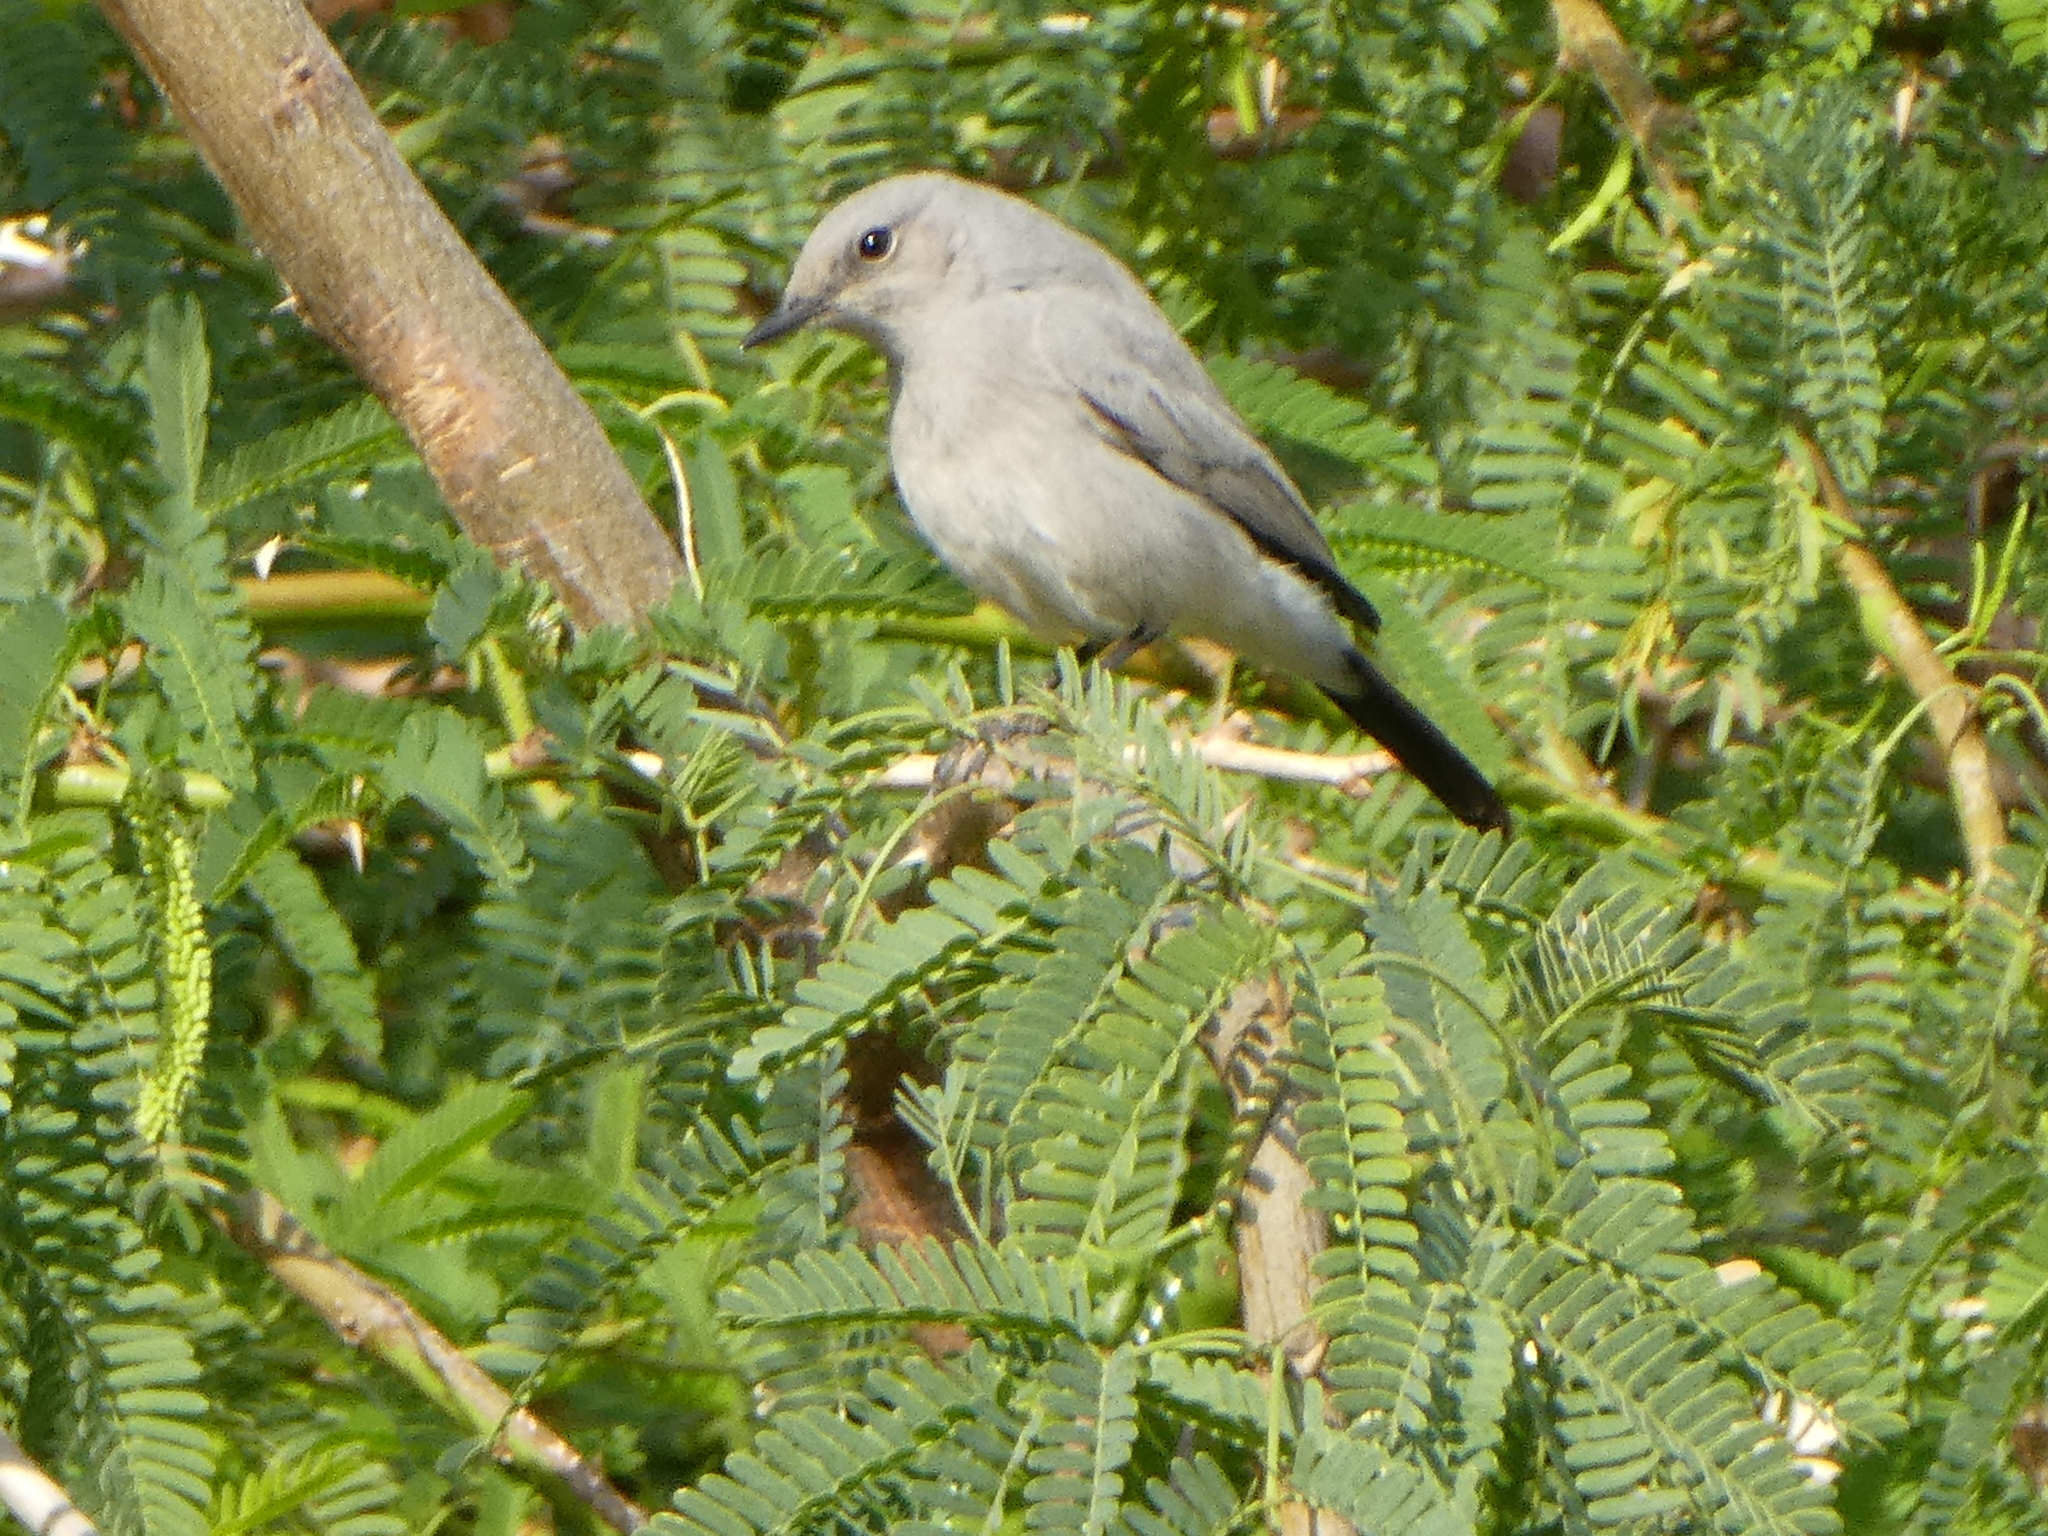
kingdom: Animalia
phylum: Chordata
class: Aves
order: Passeriformes
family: Muscicapidae
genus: Oenanthe
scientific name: Oenanthe melanura
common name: Blackstart
